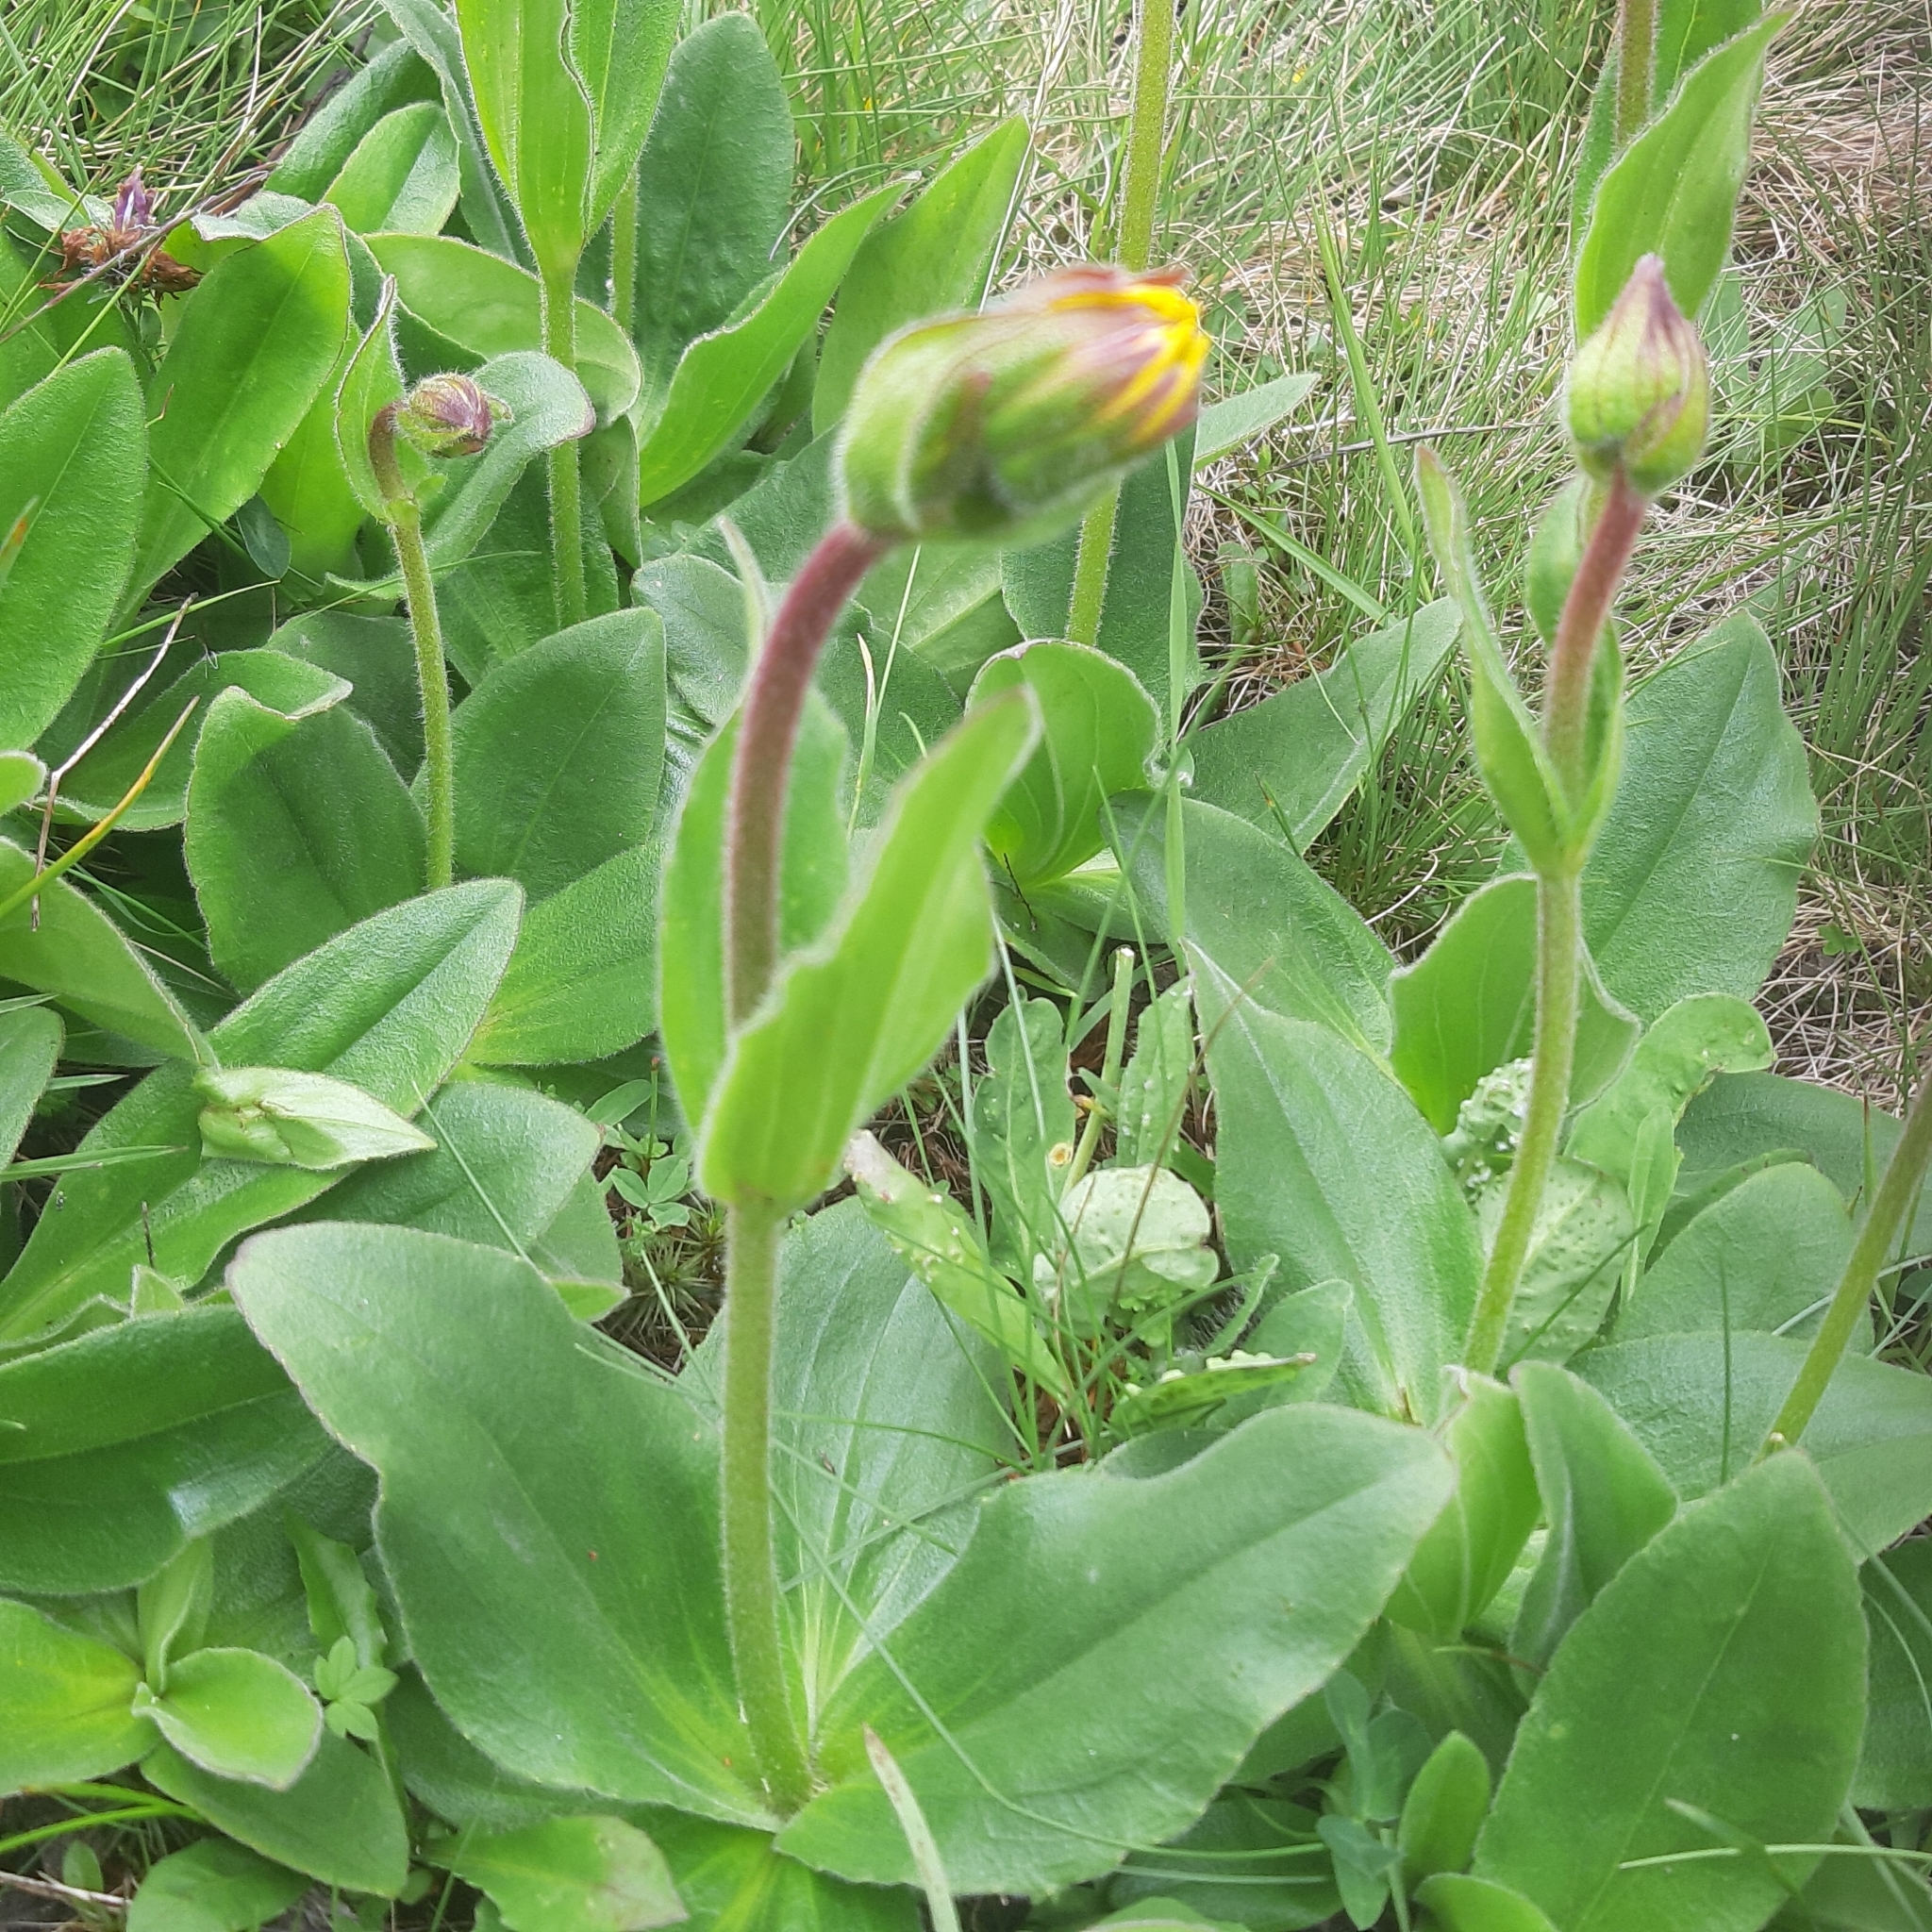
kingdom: Plantae
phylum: Tracheophyta
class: Magnoliopsida
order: Asterales
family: Asteraceae
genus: Arnica
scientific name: Arnica montana
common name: Leopard's bane
